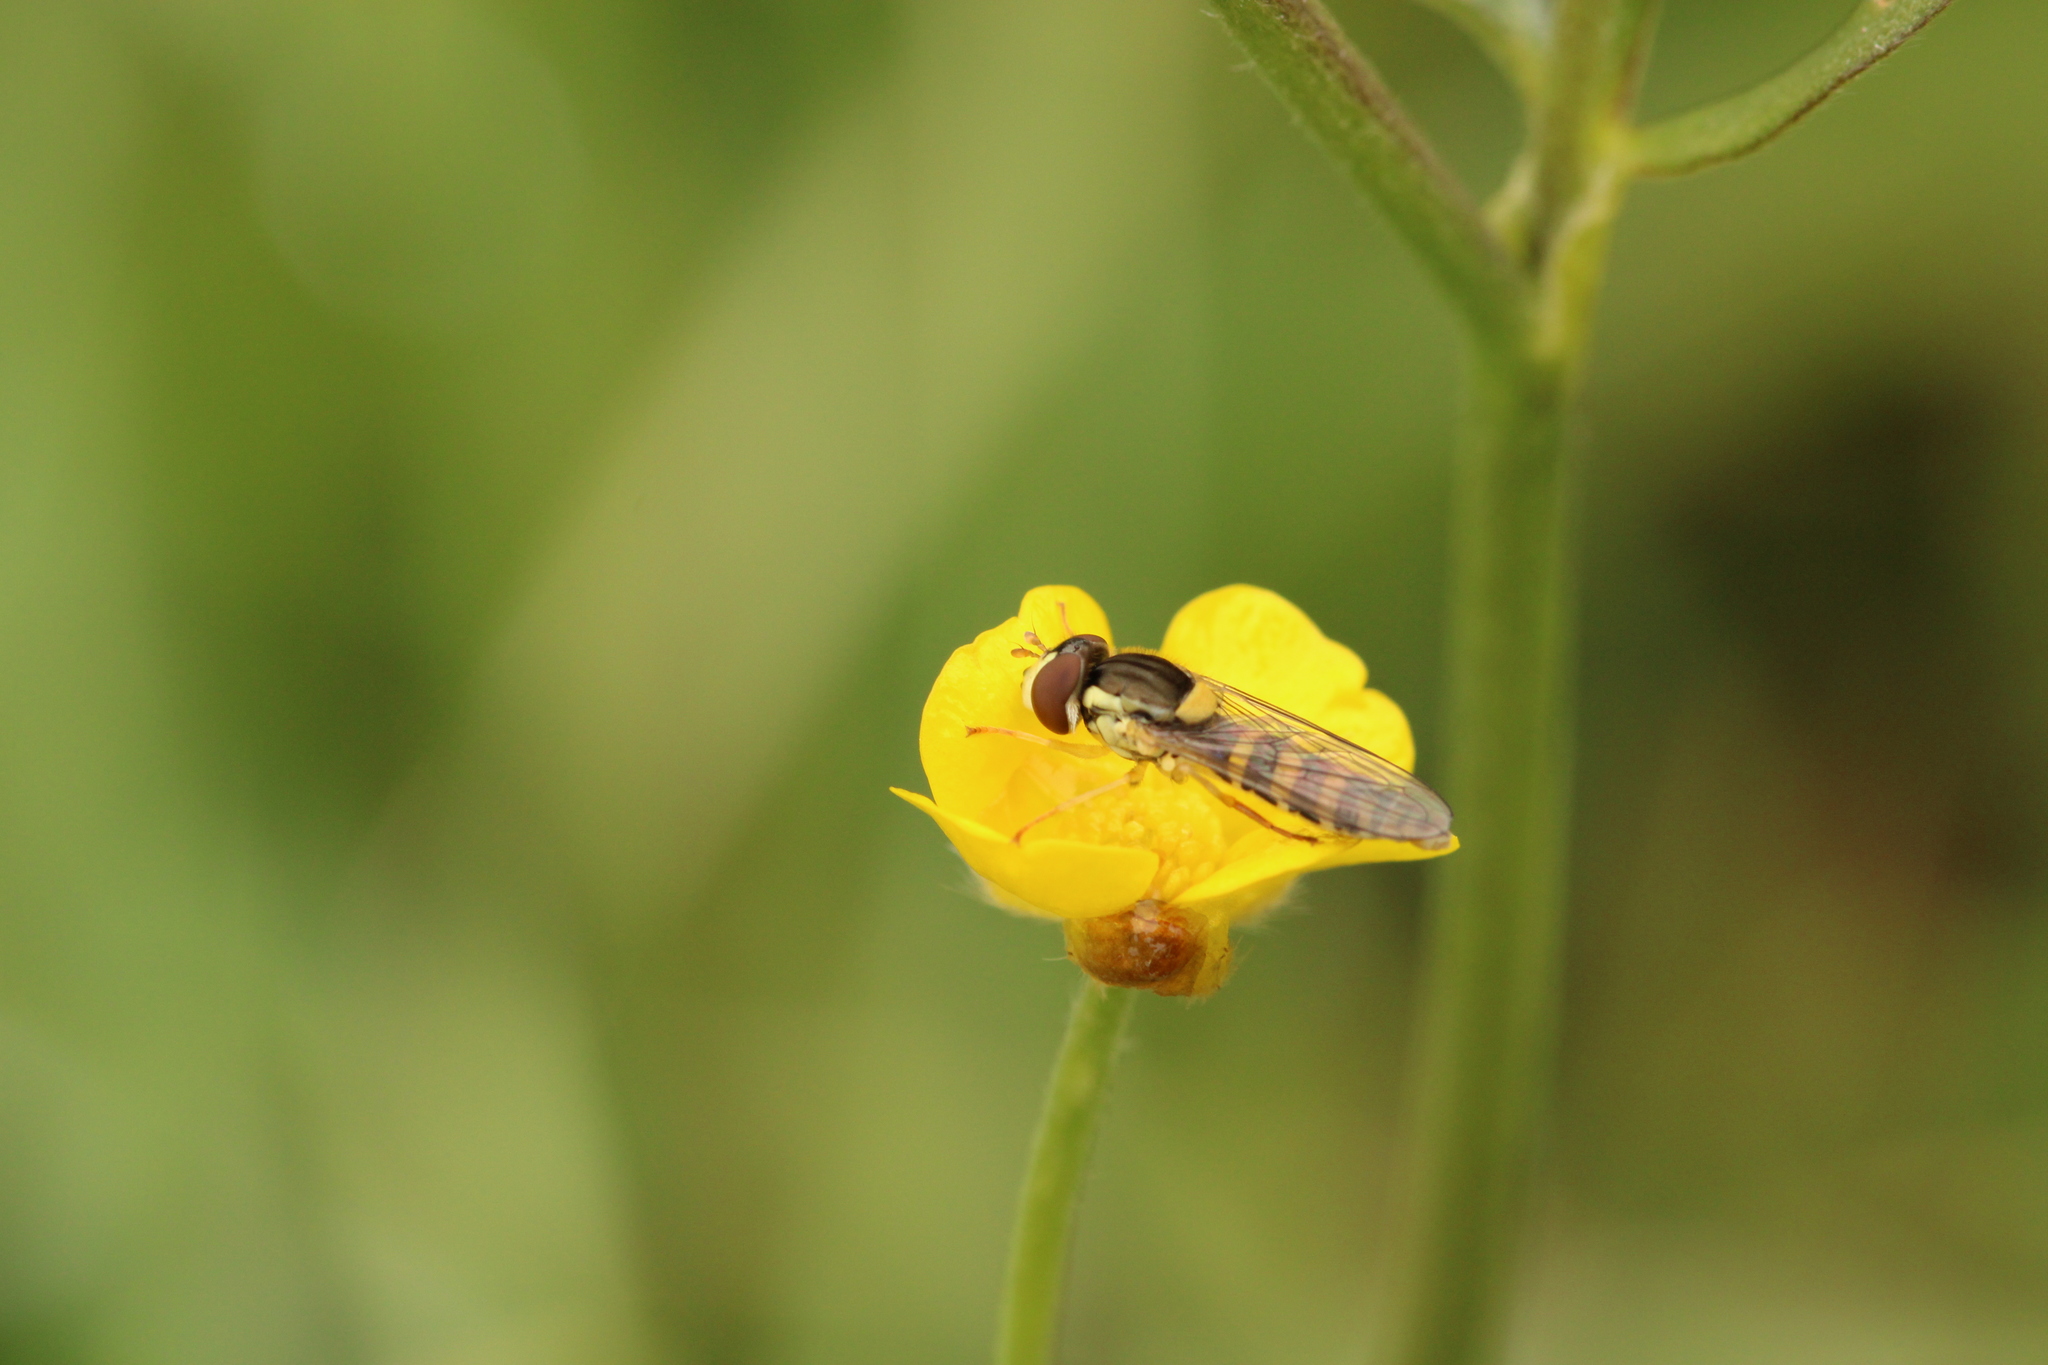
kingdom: Animalia
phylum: Arthropoda
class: Insecta
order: Diptera
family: Syrphidae
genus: Sphaerophoria
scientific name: Sphaerophoria
